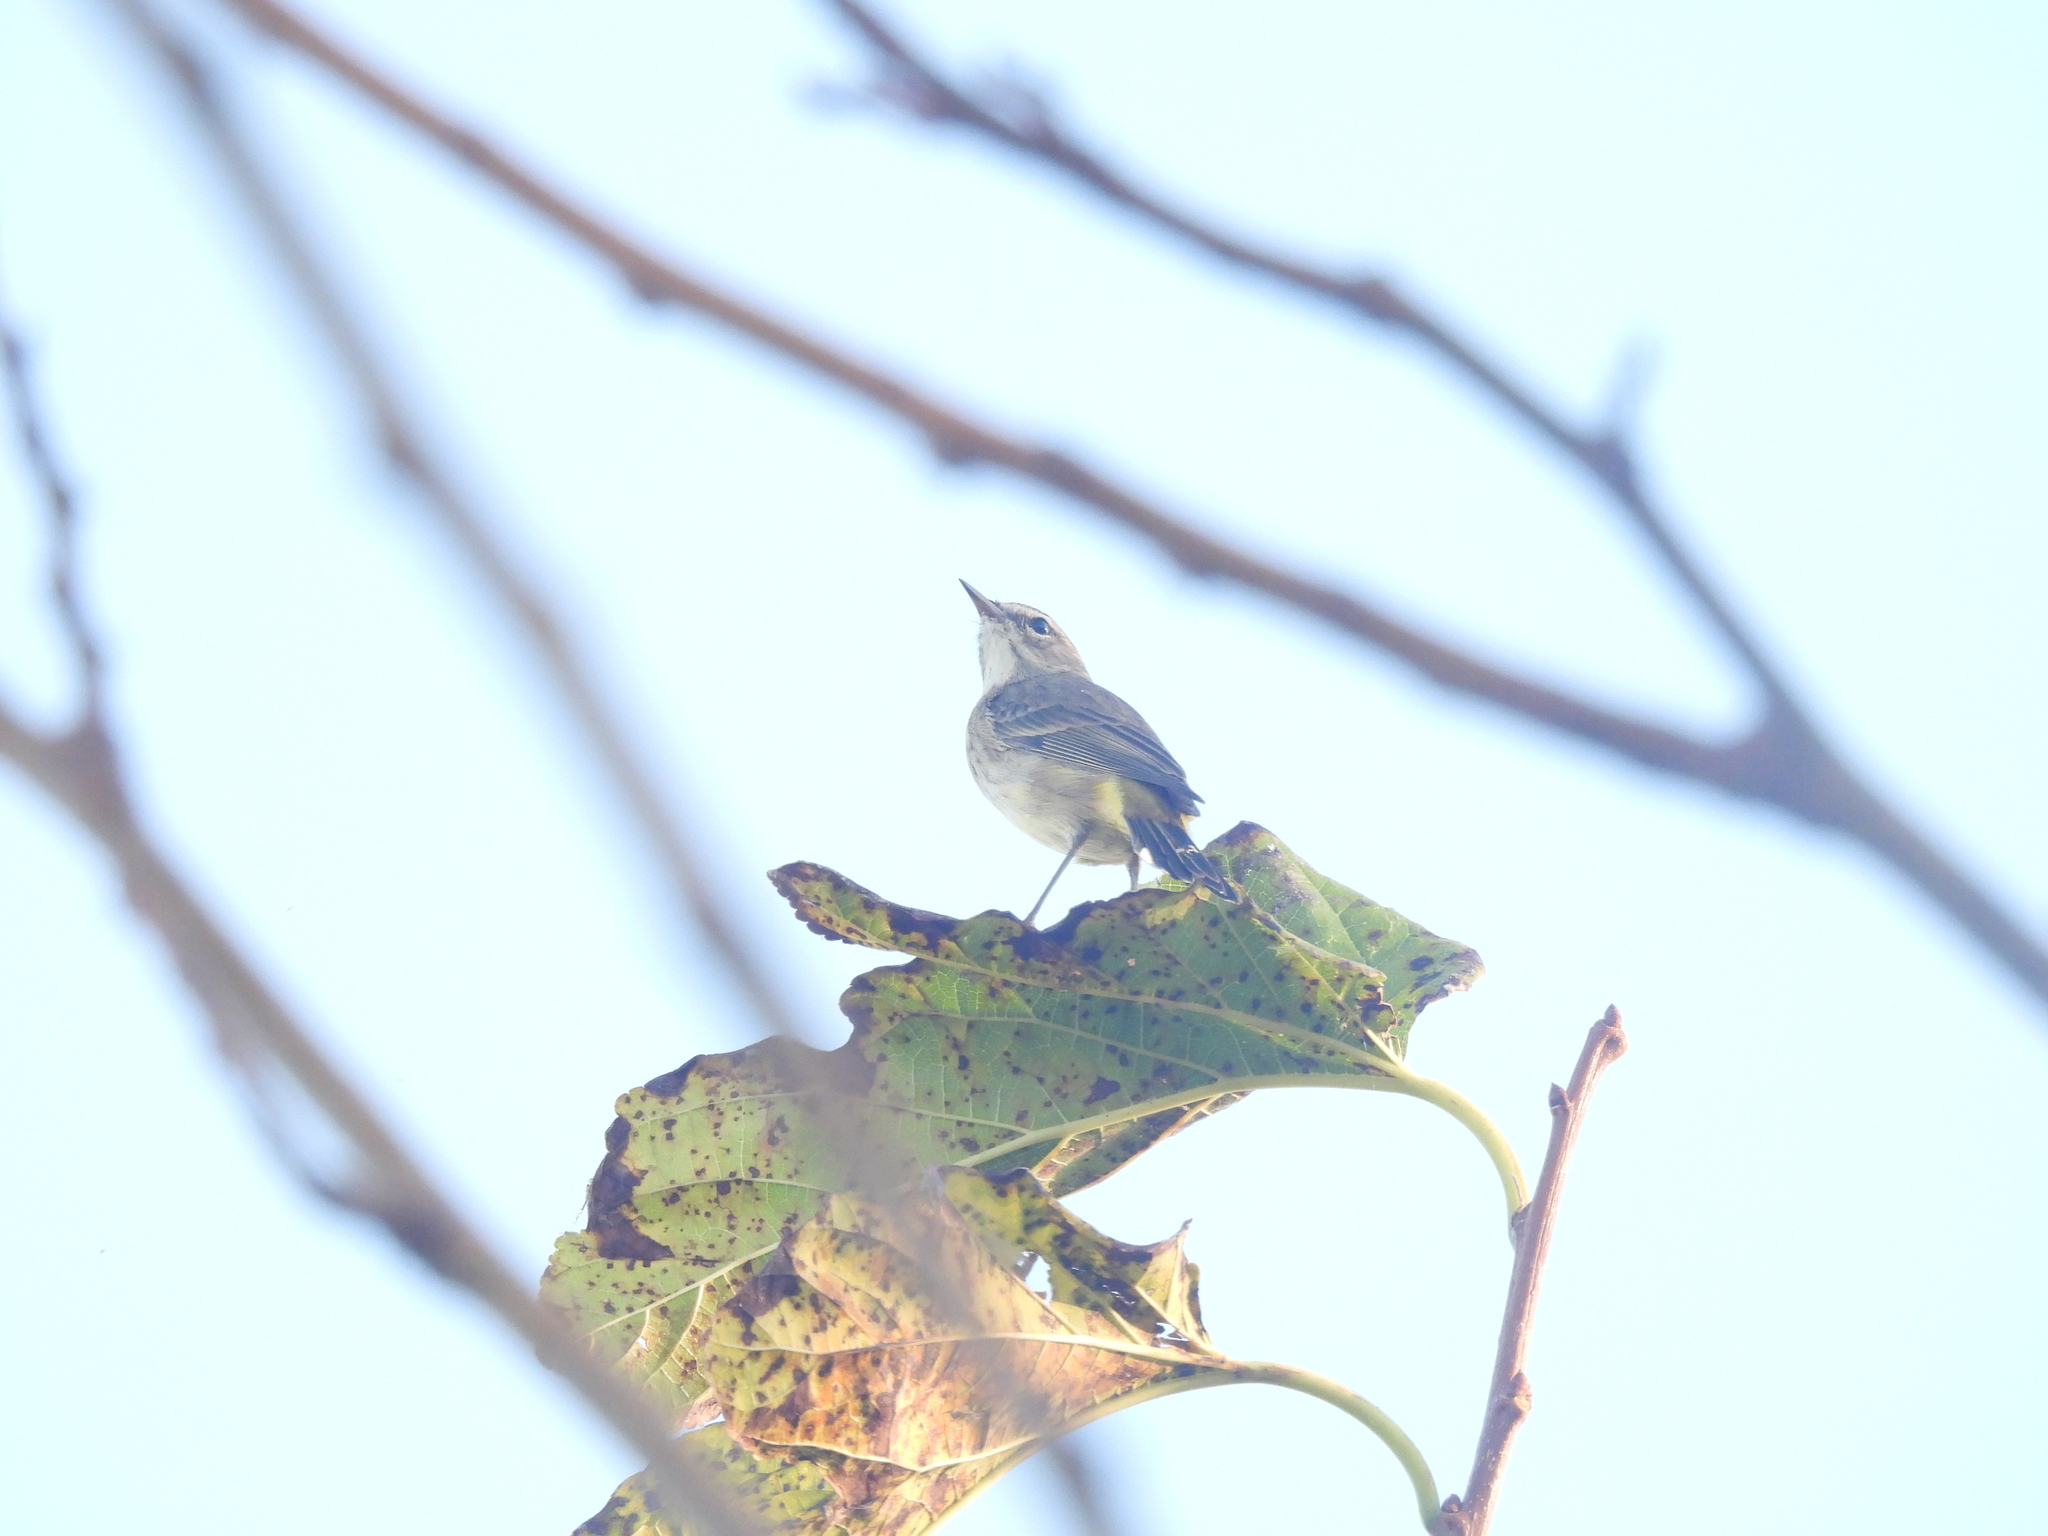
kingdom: Animalia
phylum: Chordata
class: Aves
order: Passeriformes
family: Parulidae
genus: Setophaga
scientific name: Setophaga palmarum
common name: Palm warbler
